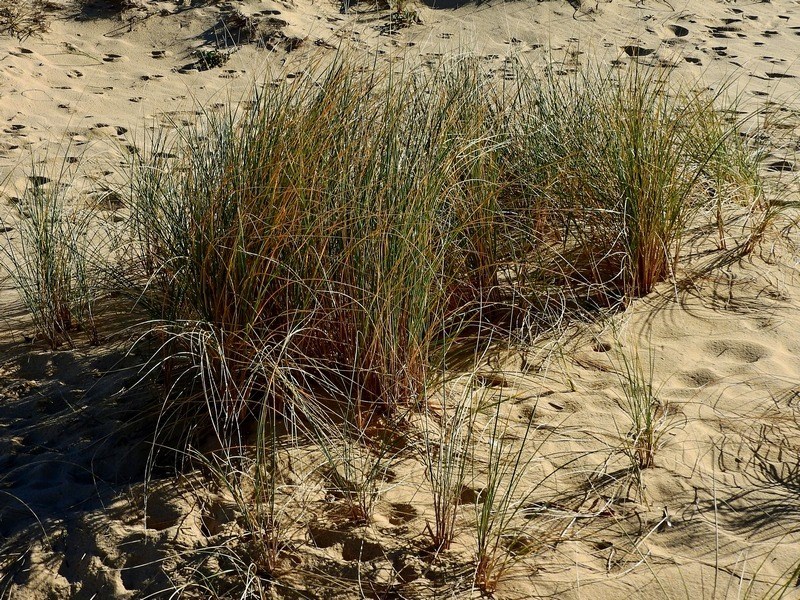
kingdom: Plantae
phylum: Tracheophyta
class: Liliopsida
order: Poales
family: Poaceae
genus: Calamagrostis
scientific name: Calamagrostis arenaria
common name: European beachgrass
